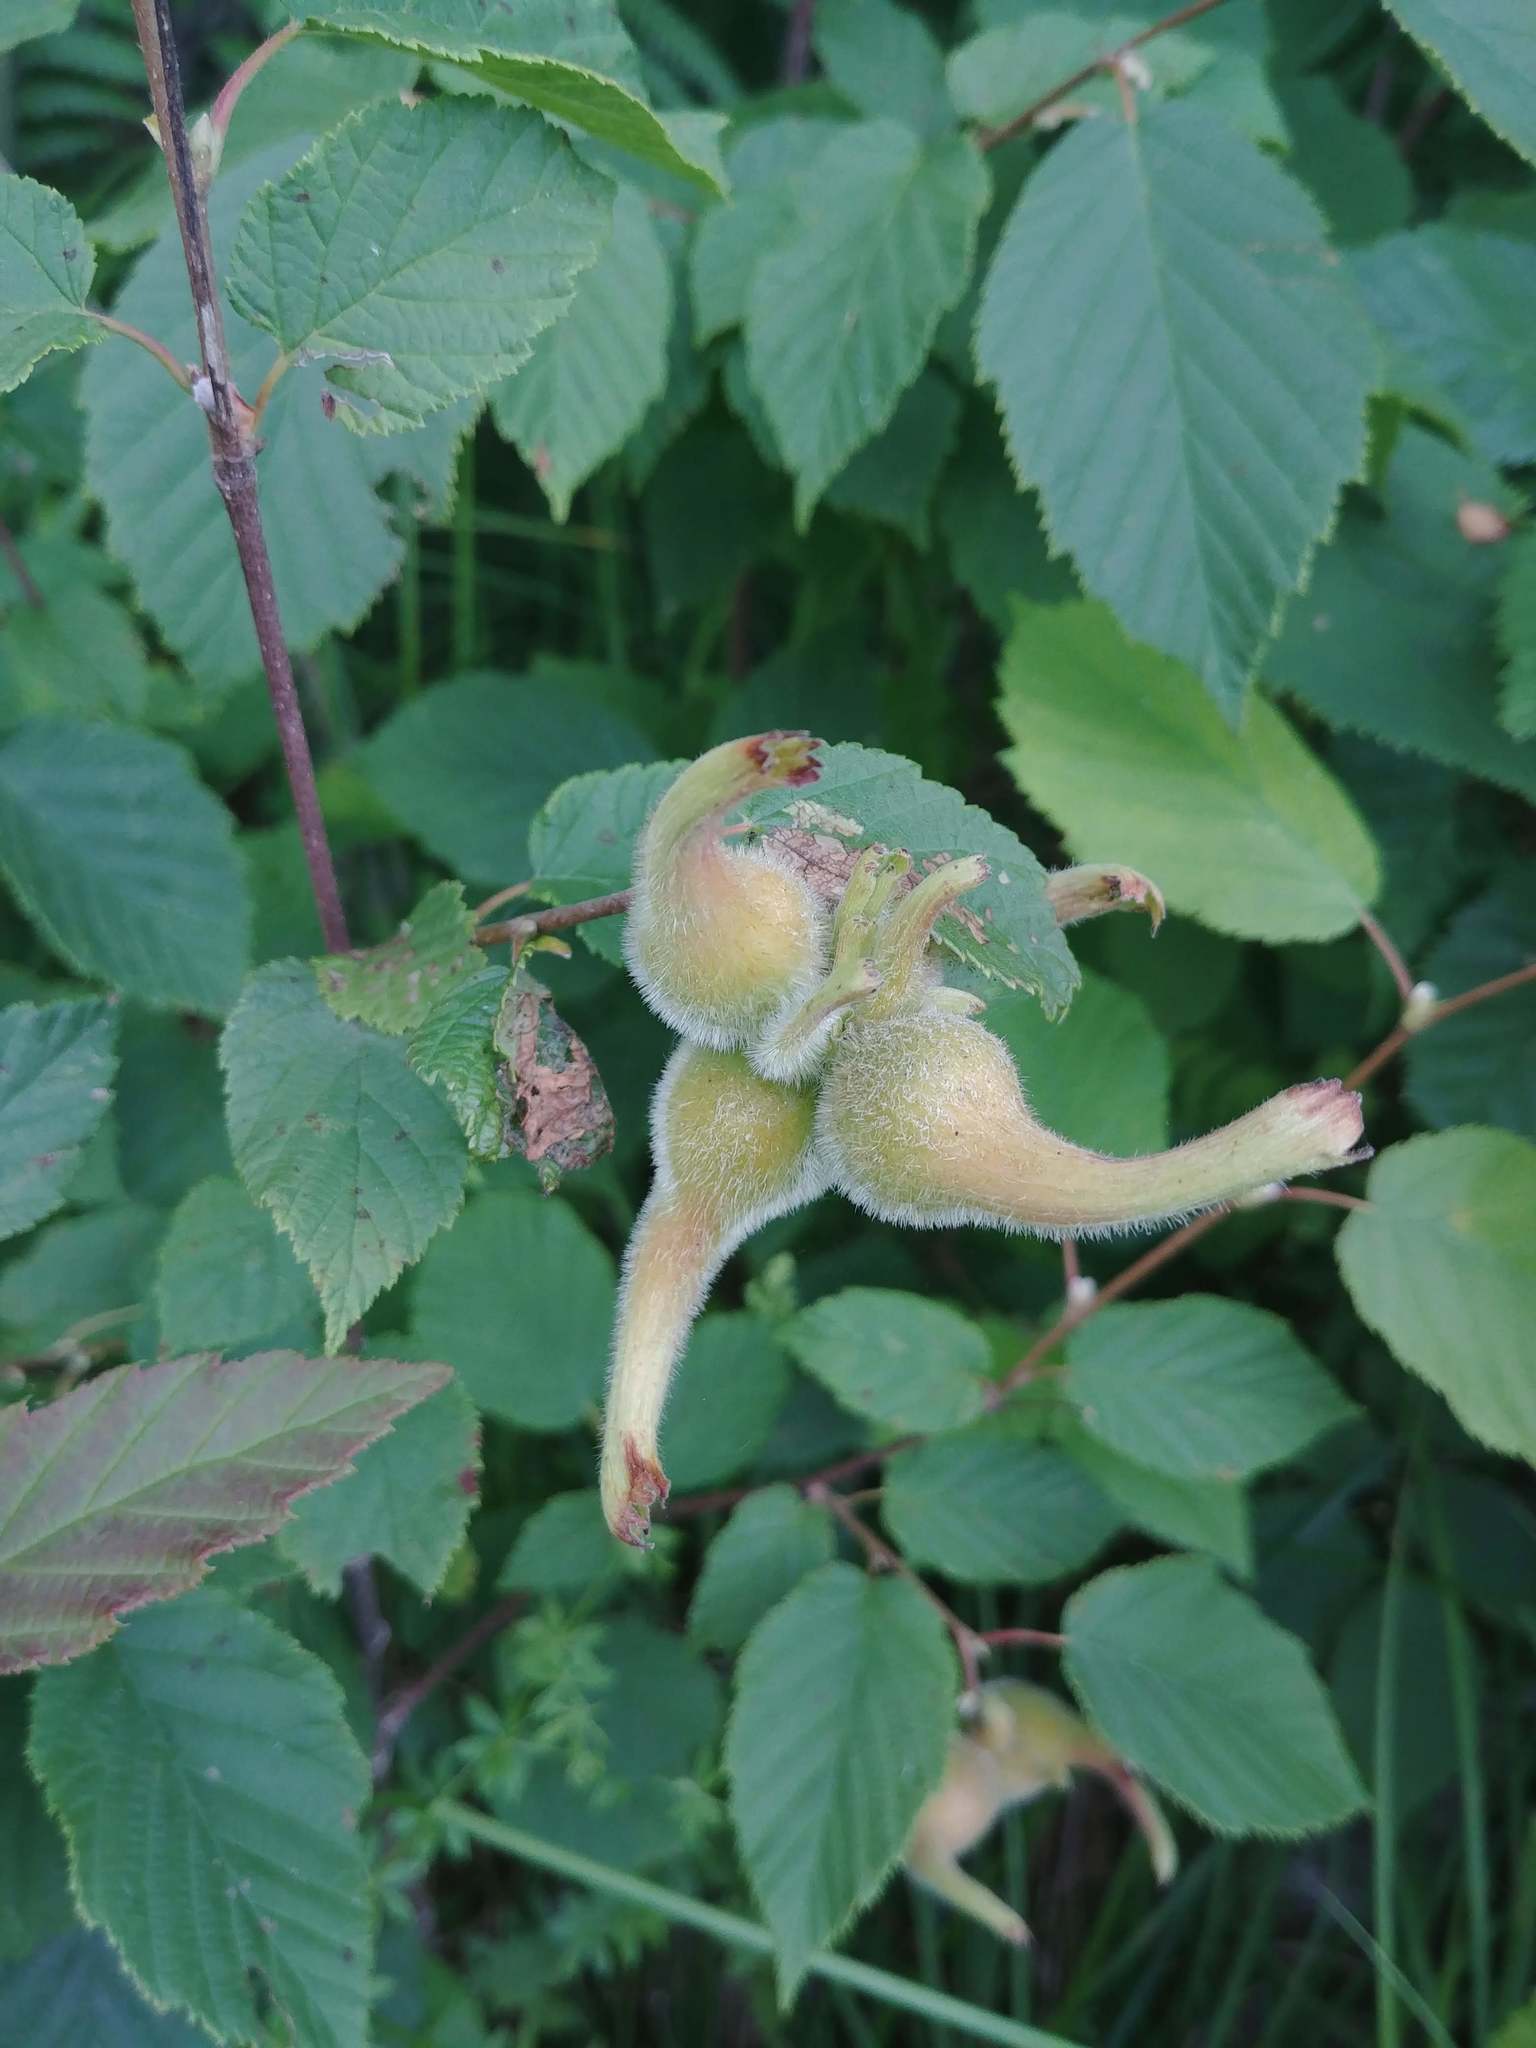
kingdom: Plantae
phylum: Tracheophyta
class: Magnoliopsida
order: Fagales
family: Betulaceae
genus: Corylus
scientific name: Corylus cornuta
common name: Beaked hazel
